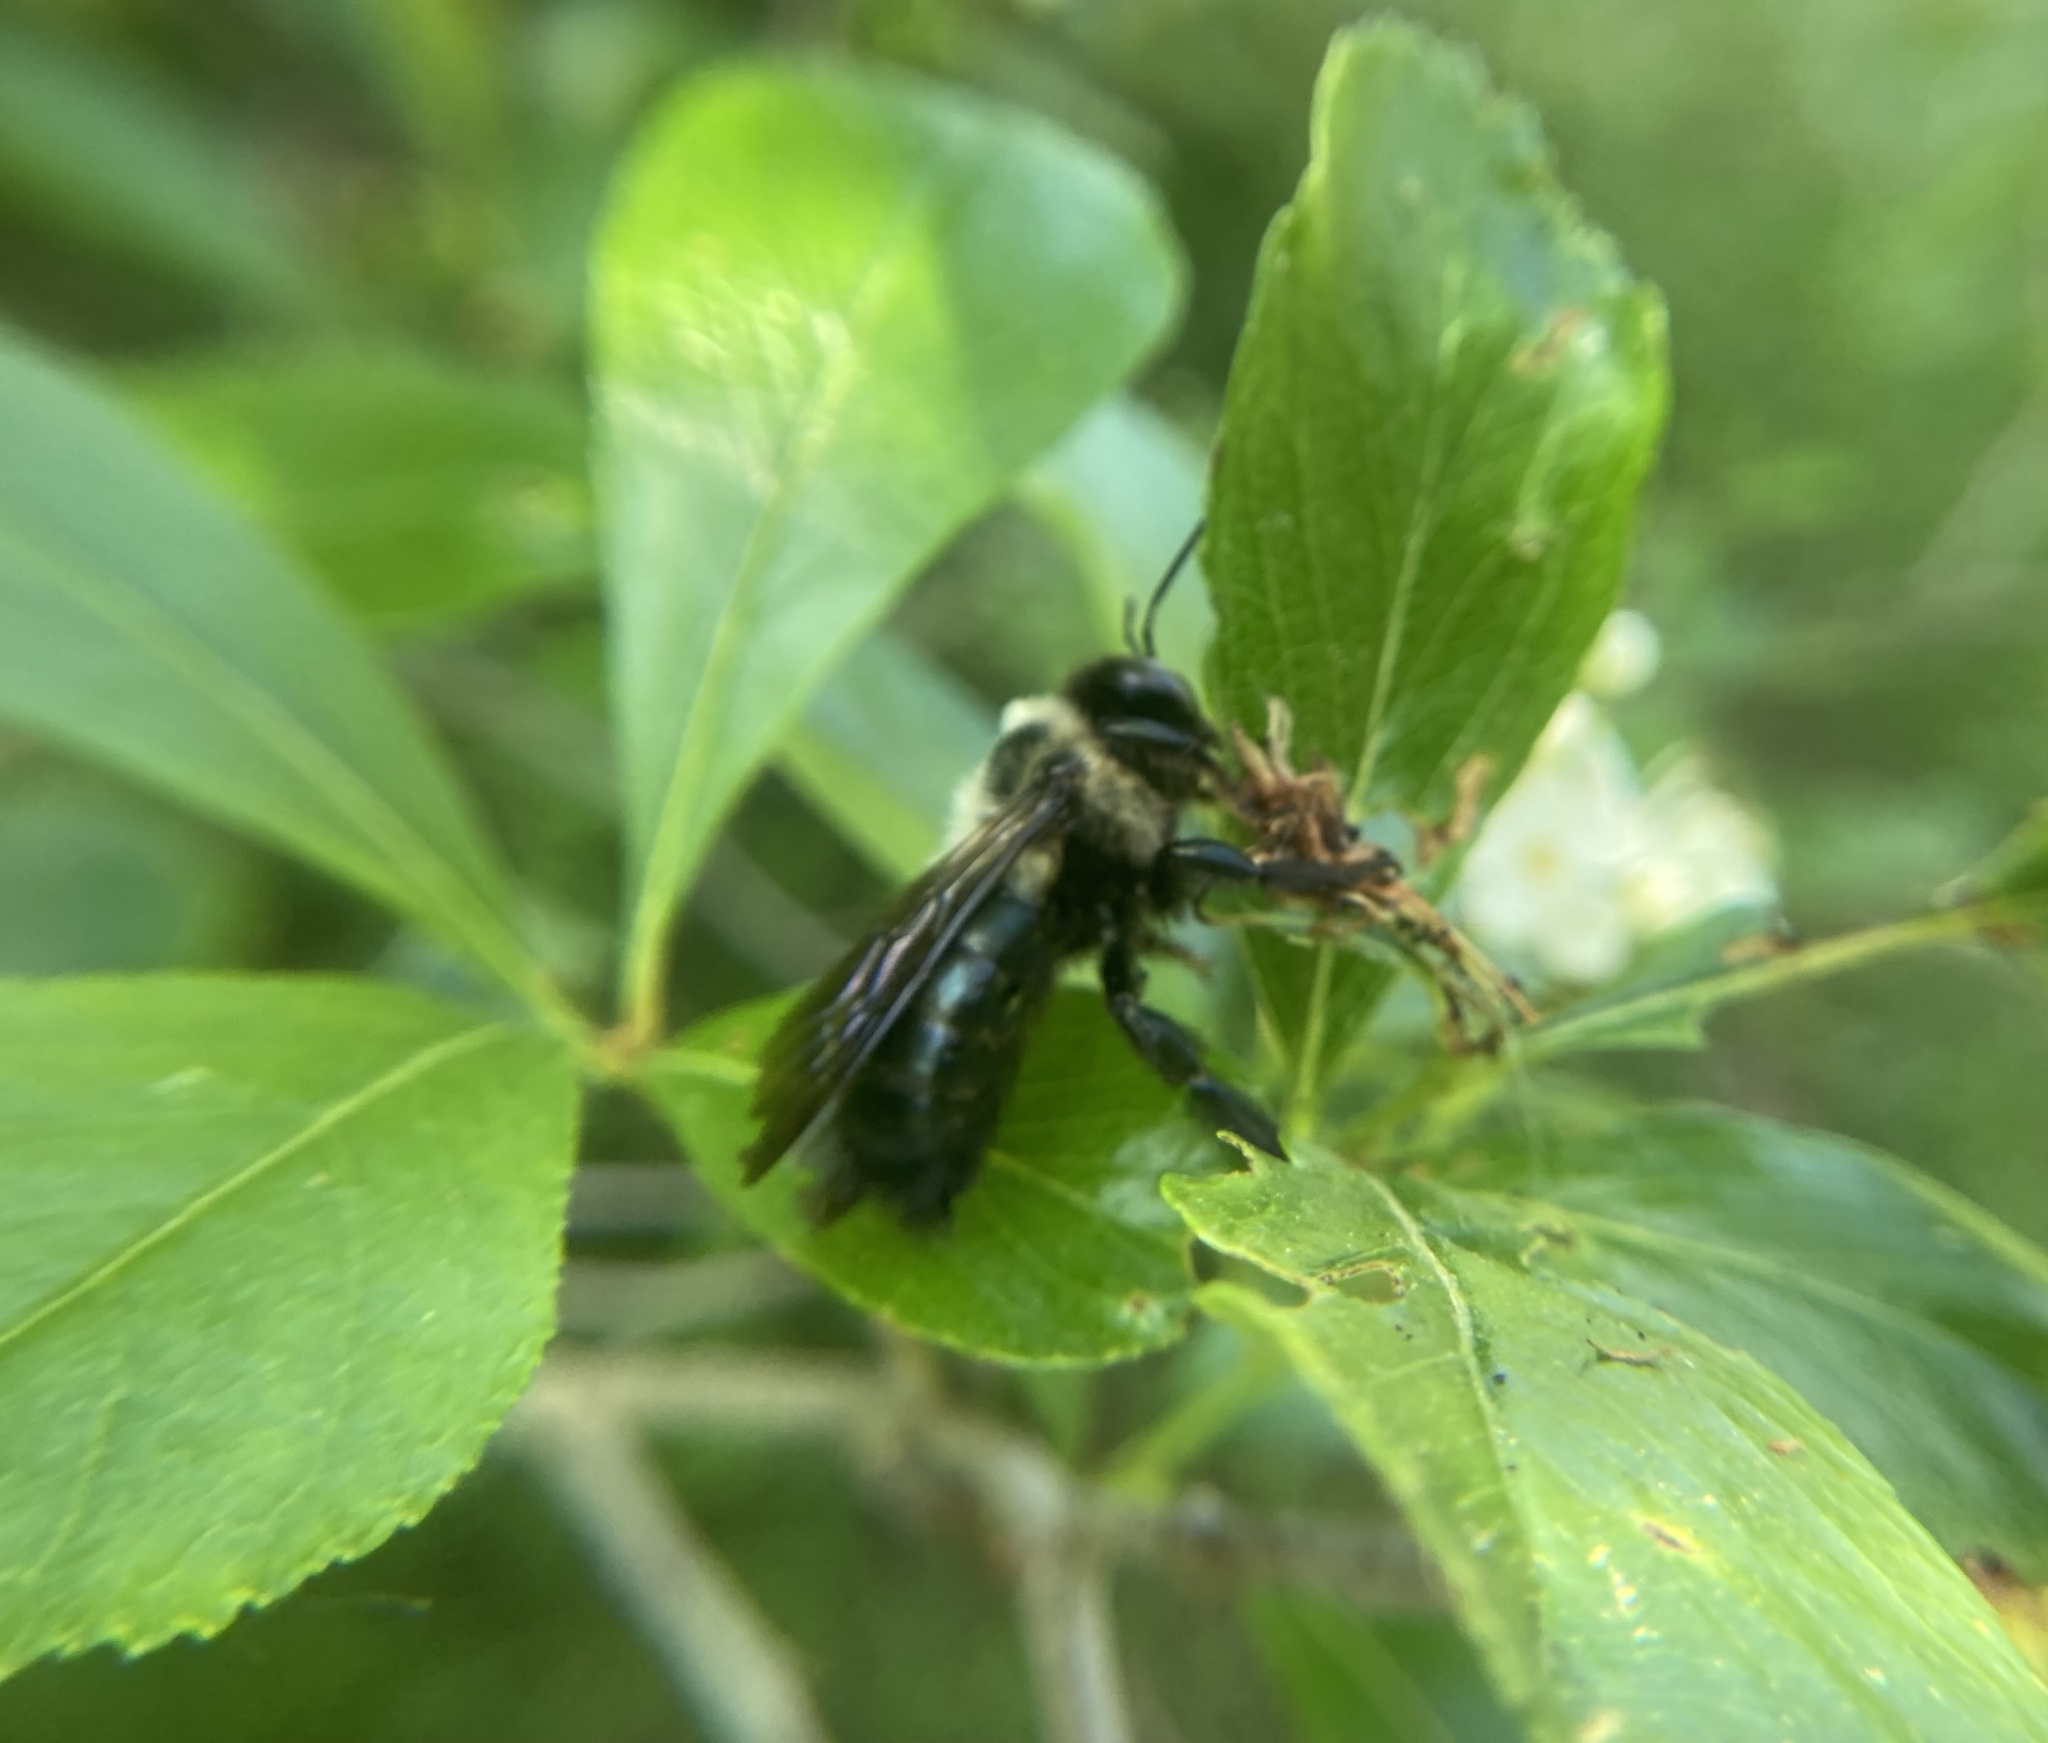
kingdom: Animalia
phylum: Arthropoda
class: Insecta
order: Hymenoptera
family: Apidae
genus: Xylocopa
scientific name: Xylocopa virginica
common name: Carpenter bee
